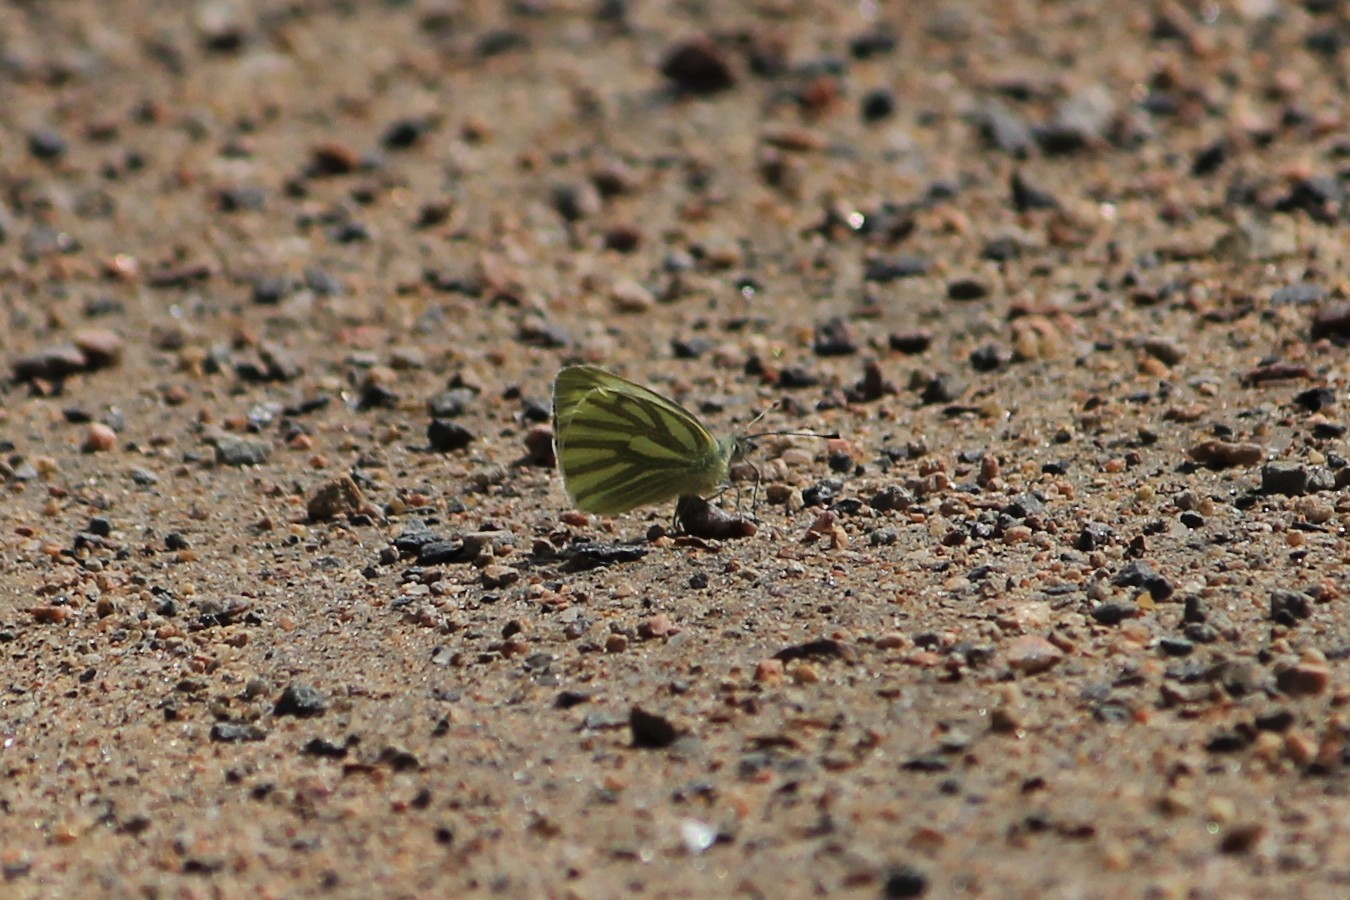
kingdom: Animalia
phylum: Arthropoda
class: Insecta
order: Lepidoptera
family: Pieridae
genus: Pieris
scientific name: Pieris napi
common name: Green-veined white
